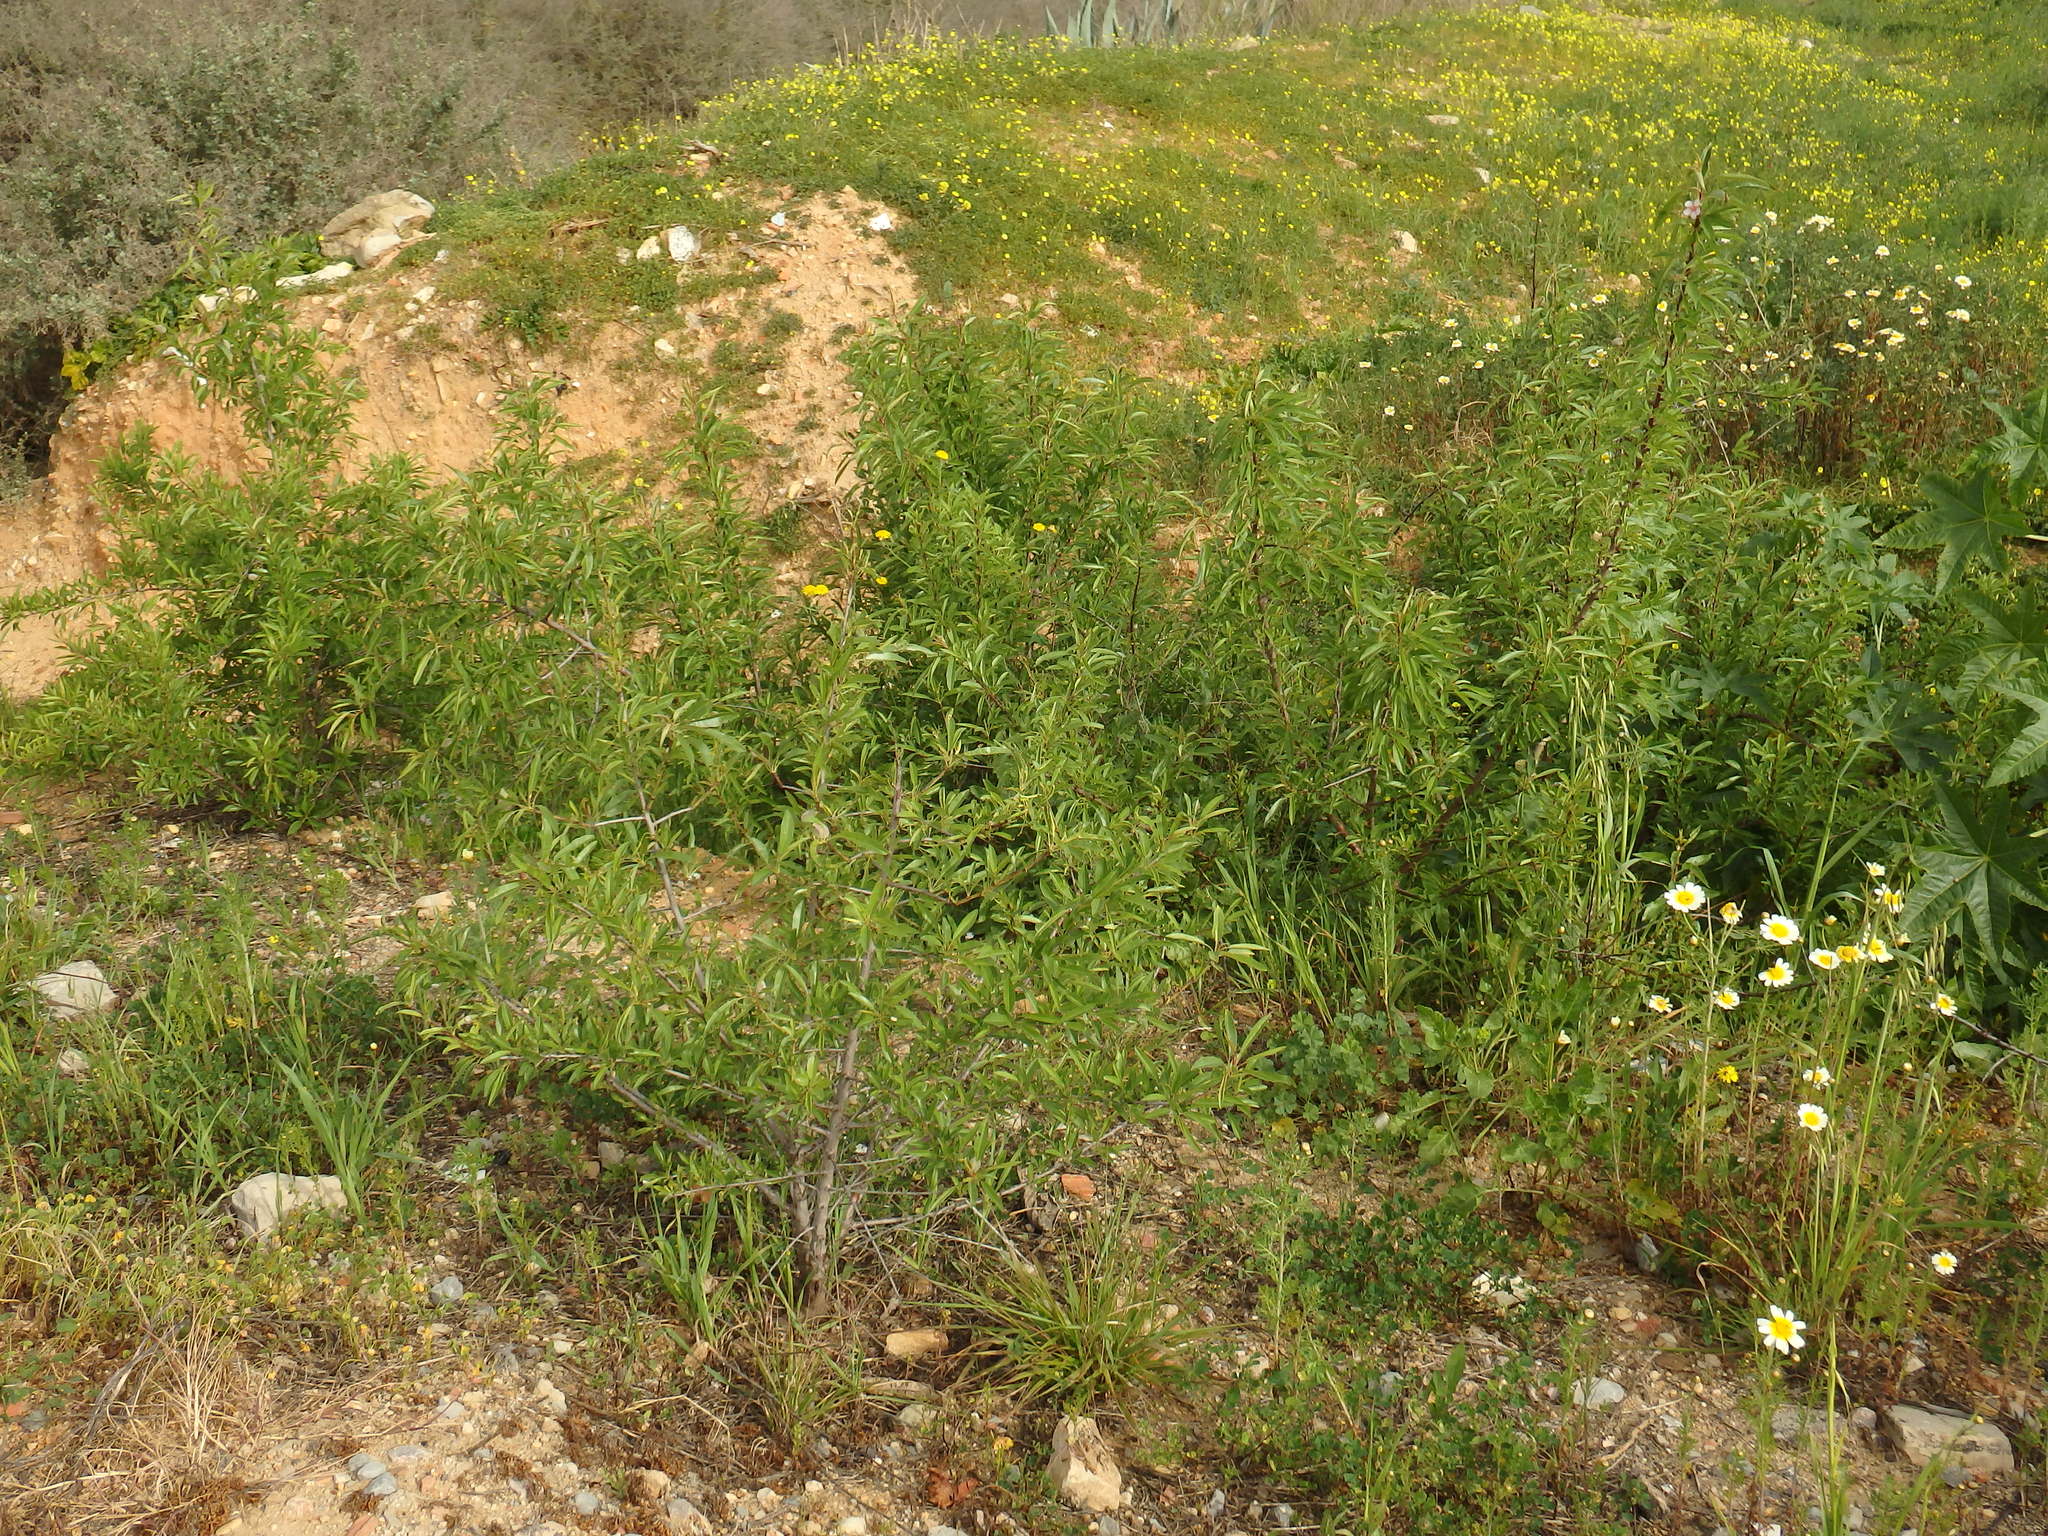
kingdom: Plantae
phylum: Tracheophyta
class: Magnoliopsida
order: Rosales
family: Rosaceae
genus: Prunus
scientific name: Prunus amygdalus
